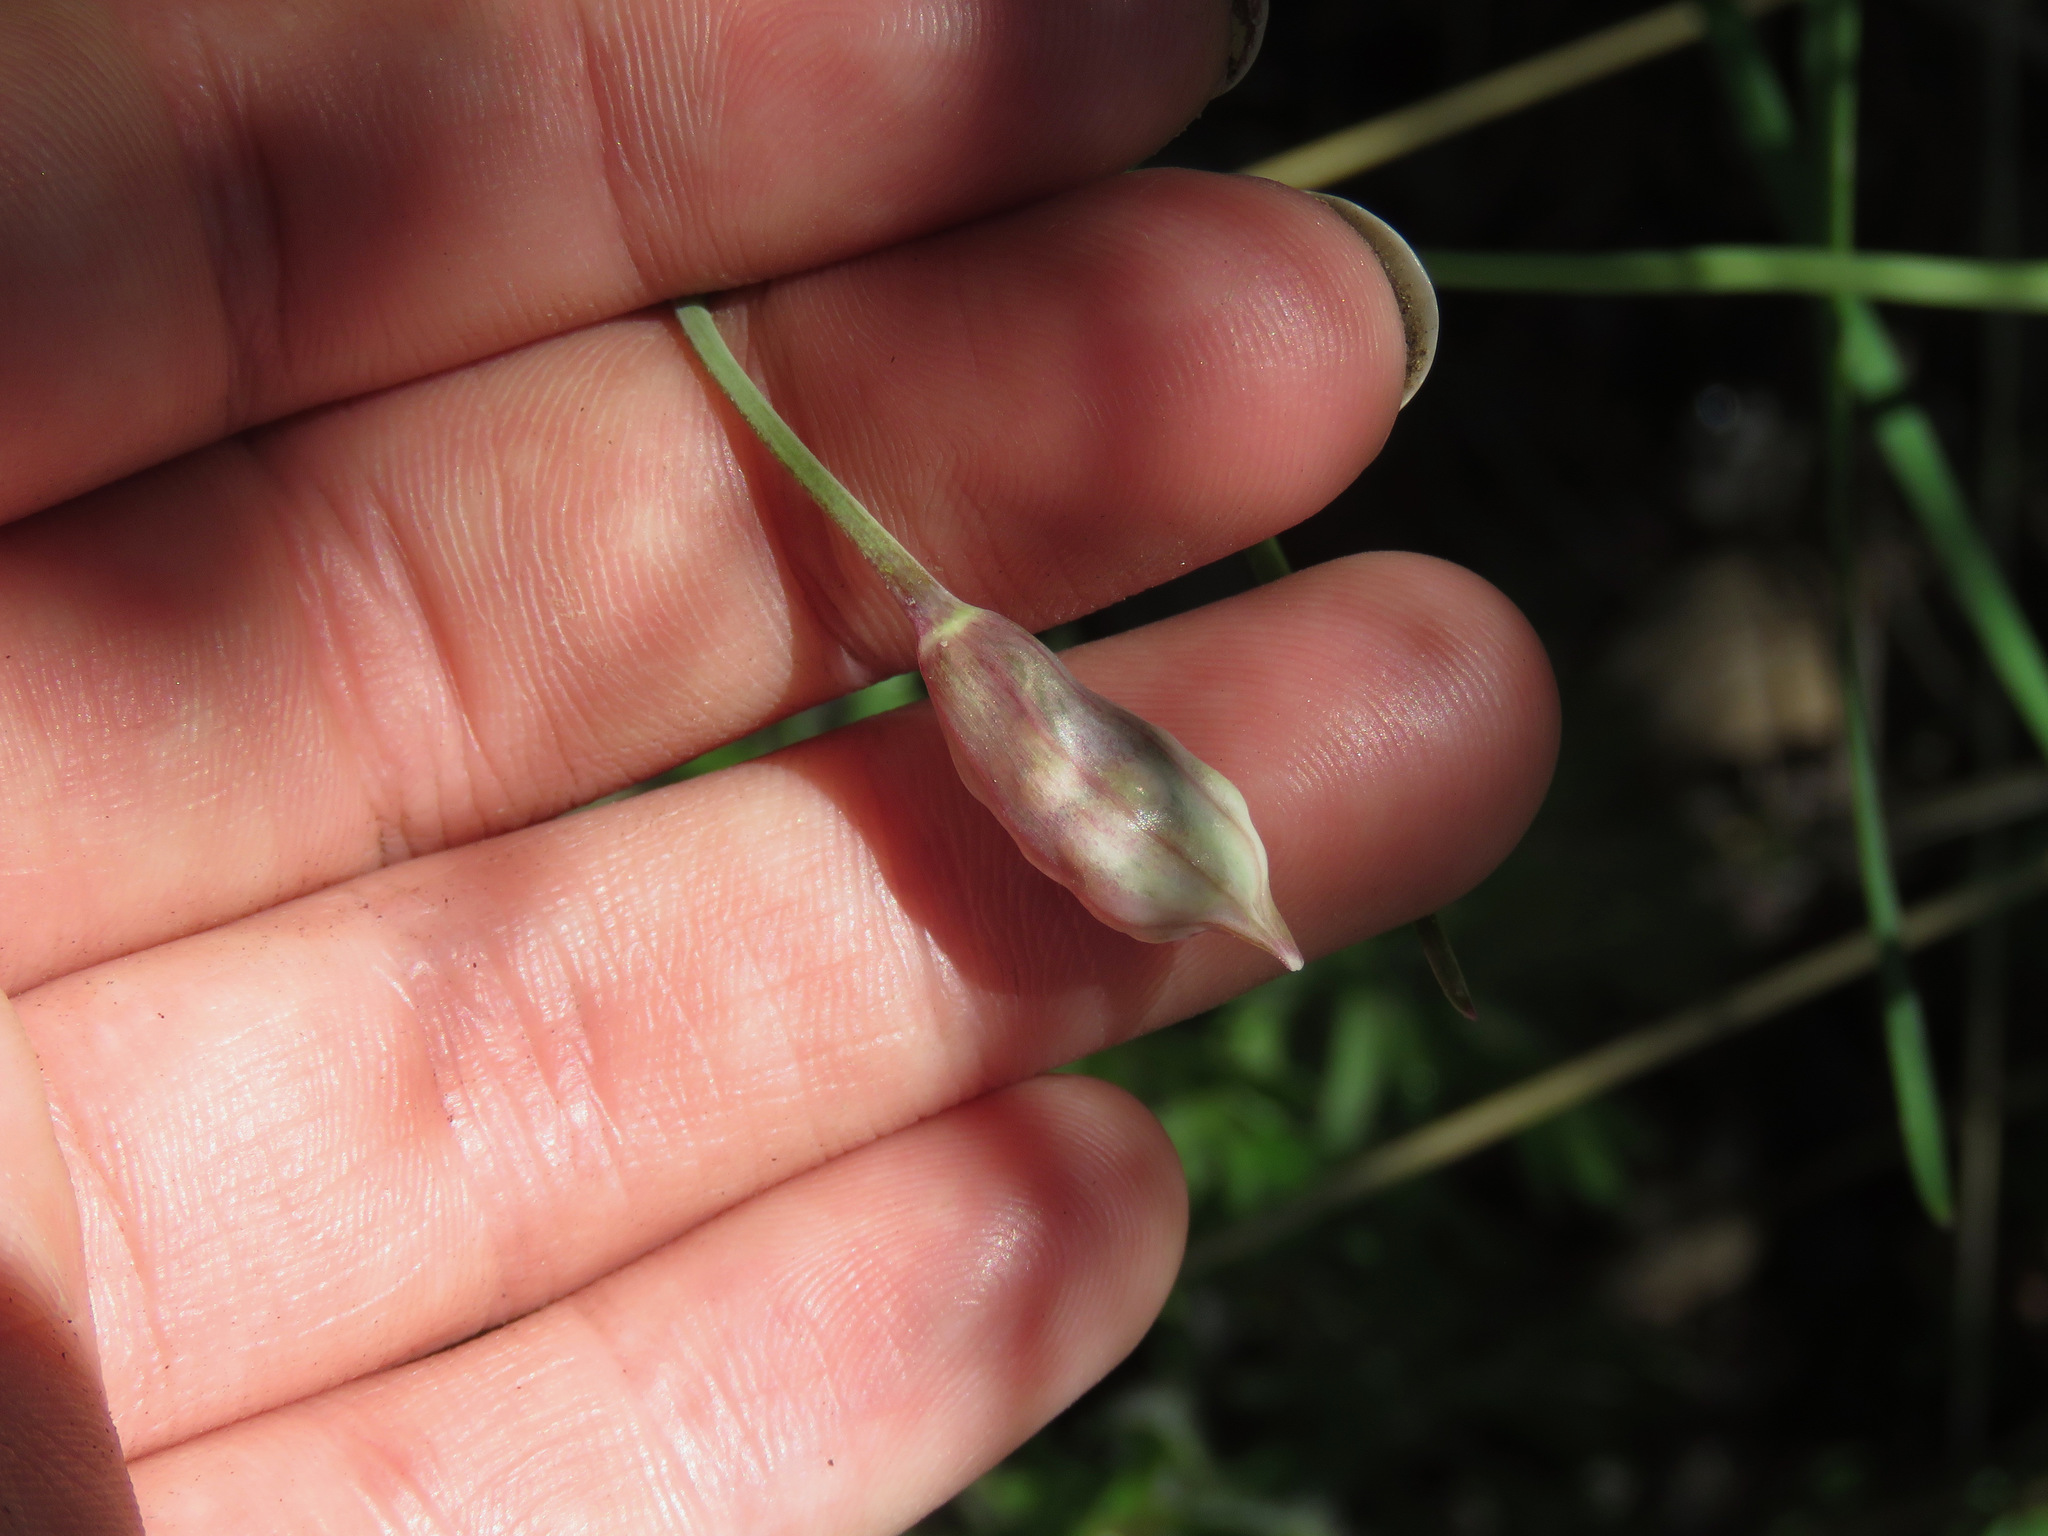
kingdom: Plantae
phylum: Tracheophyta
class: Liliopsida
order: Asparagales
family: Amaryllidaceae
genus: Allium
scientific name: Allium cernuum
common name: Nodding onion
